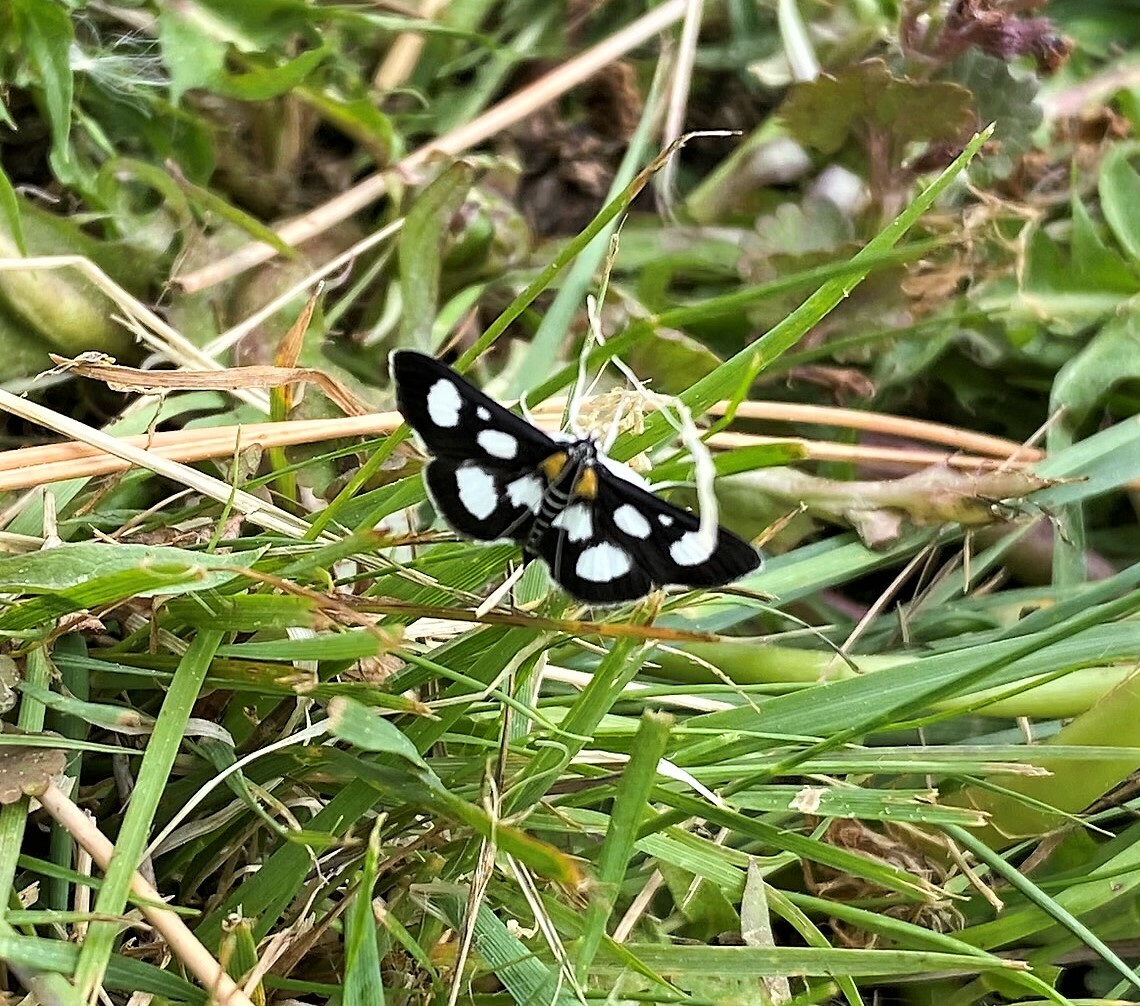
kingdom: Animalia
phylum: Arthropoda
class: Insecta
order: Lepidoptera
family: Crambidae
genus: Anania
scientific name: Anania funebris
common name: White-spotted sable moth
